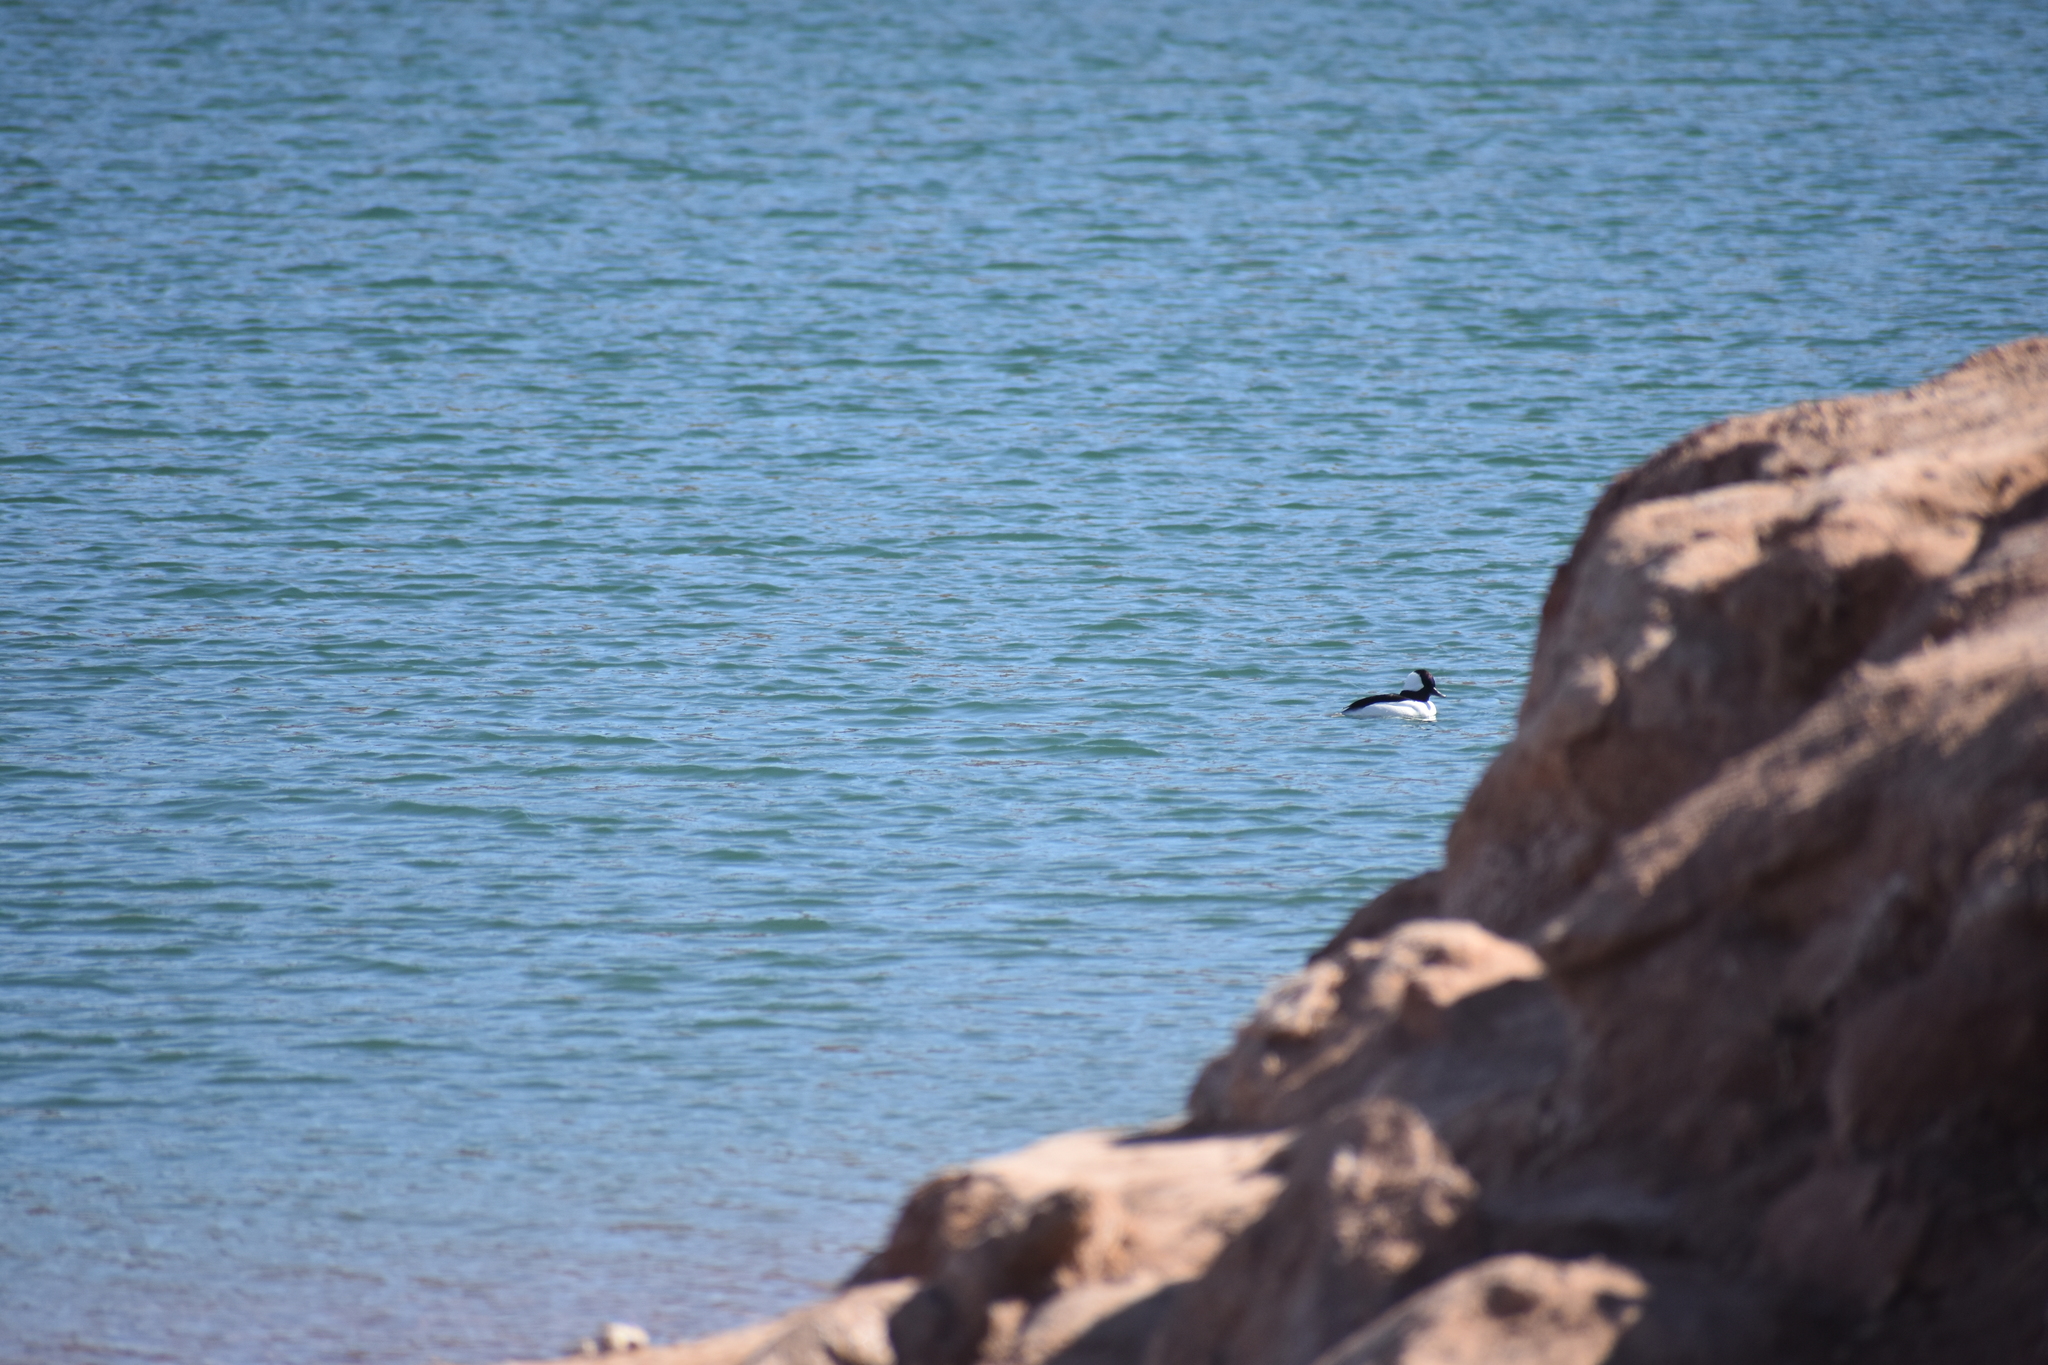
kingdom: Animalia
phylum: Chordata
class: Aves
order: Anseriformes
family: Anatidae
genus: Bucephala
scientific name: Bucephala albeola
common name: Bufflehead
